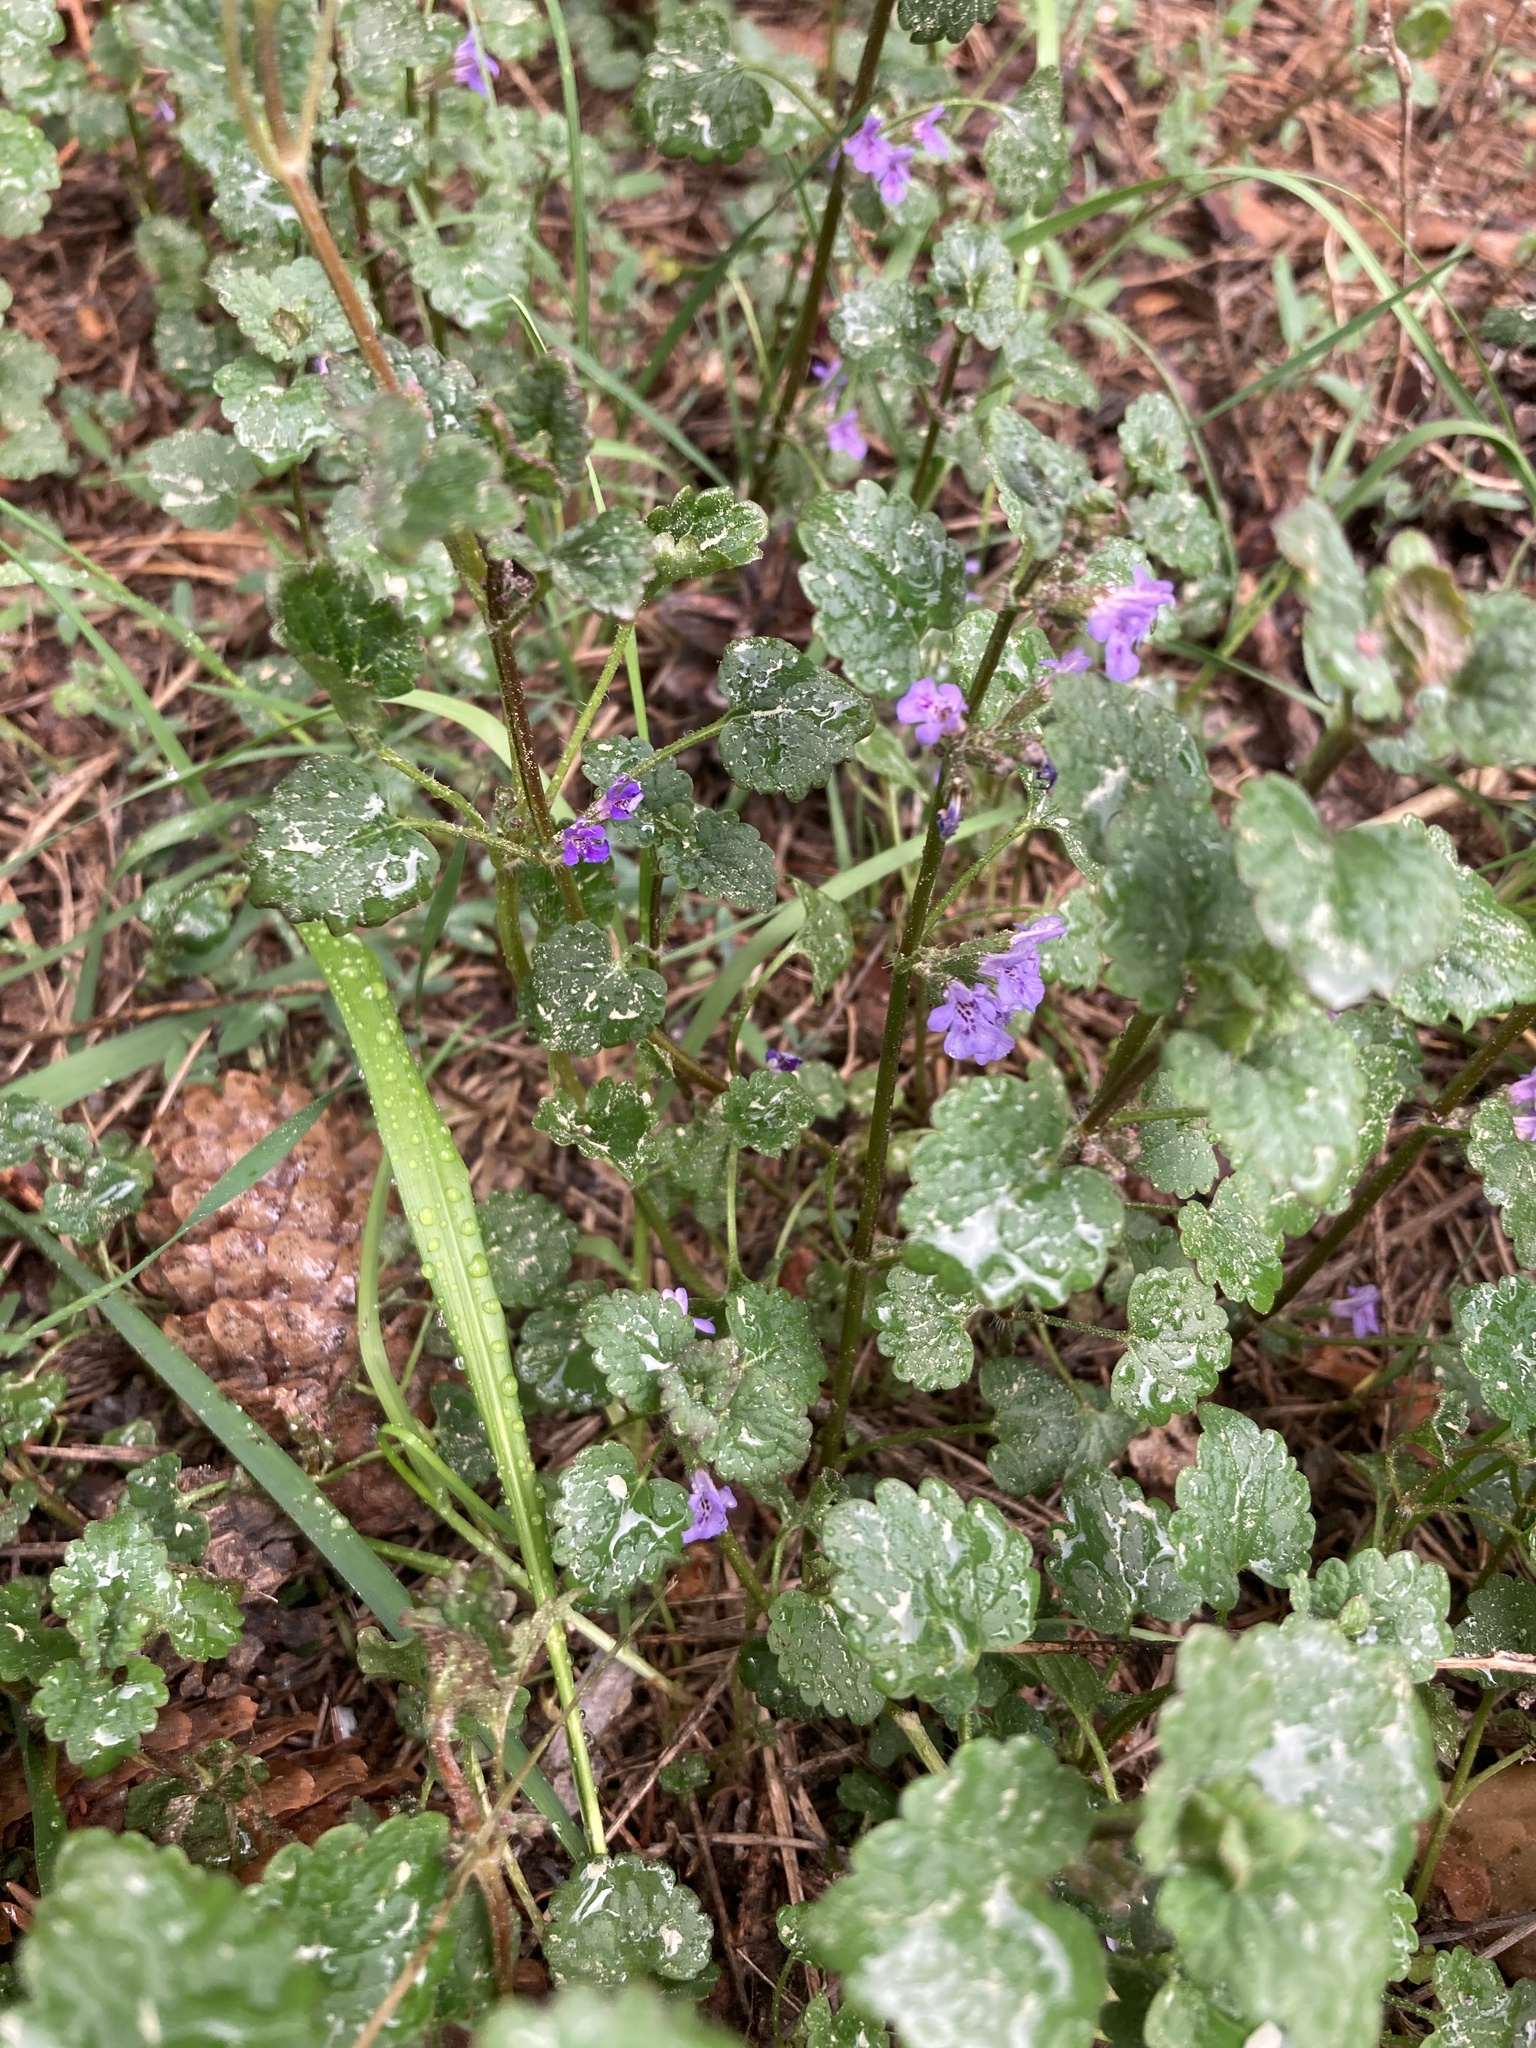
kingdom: Plantae
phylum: Tracheophyta
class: Magnoliopsida
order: Lamiales
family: Lamiaceae
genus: Glechoma
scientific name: Glechoma hederacea
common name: Ground ivy
